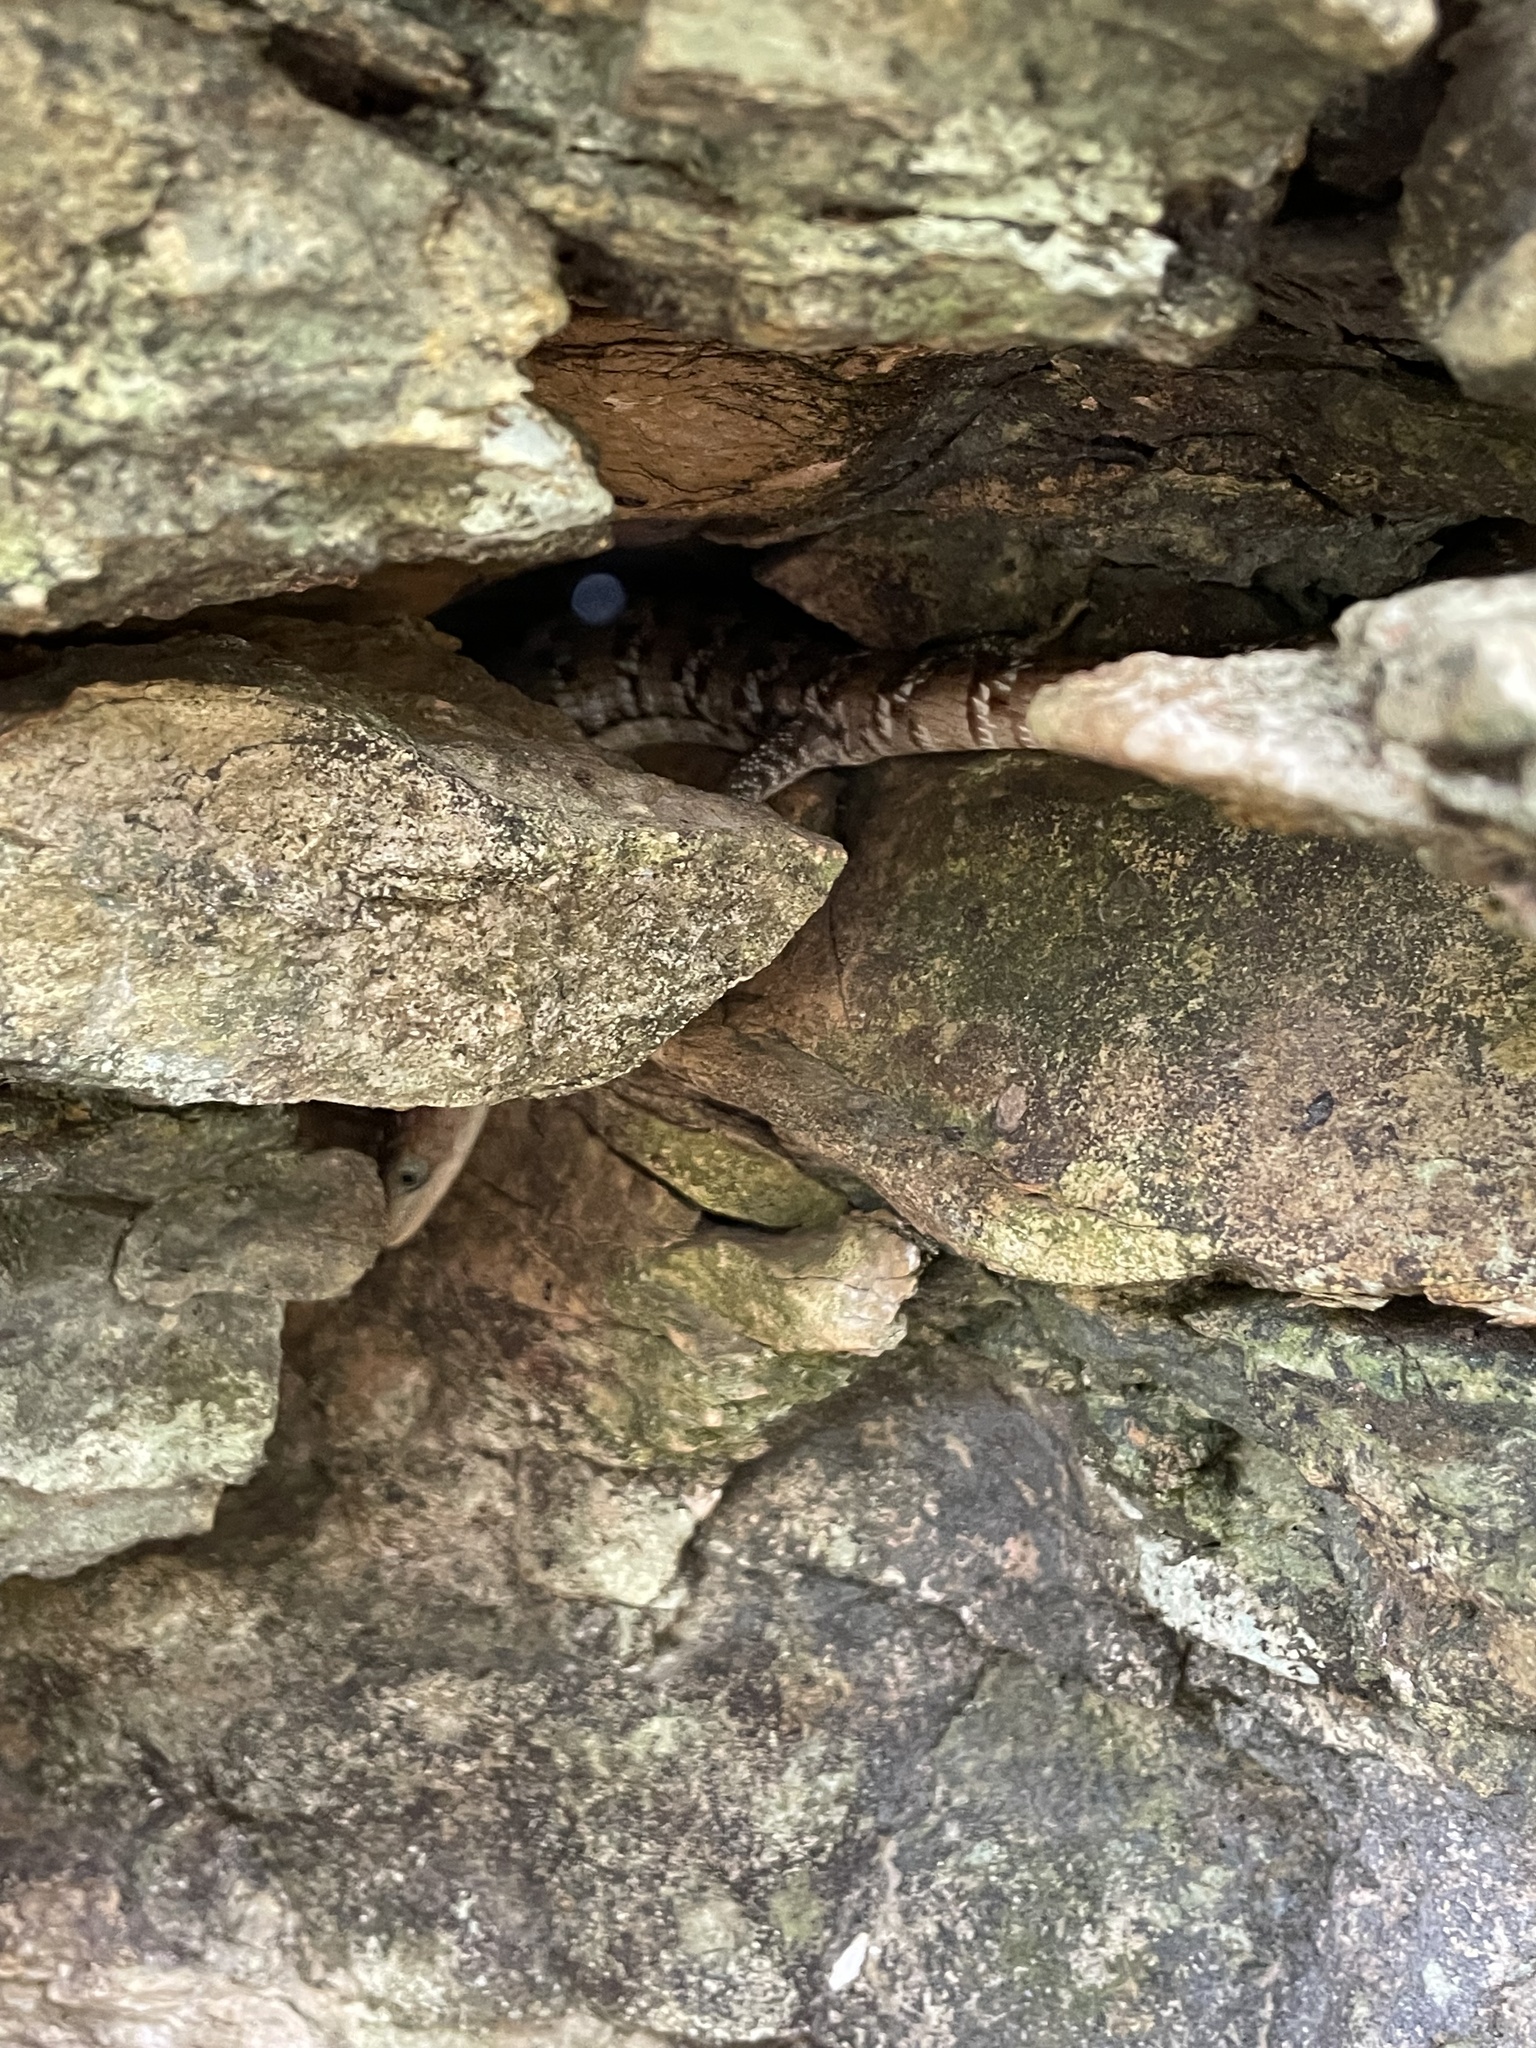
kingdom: Animalia
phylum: Chordata
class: Squamata
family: Anguidae
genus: Gerrhonotus
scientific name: Gerrhonotus infernalis
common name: Texas alligator lizard
